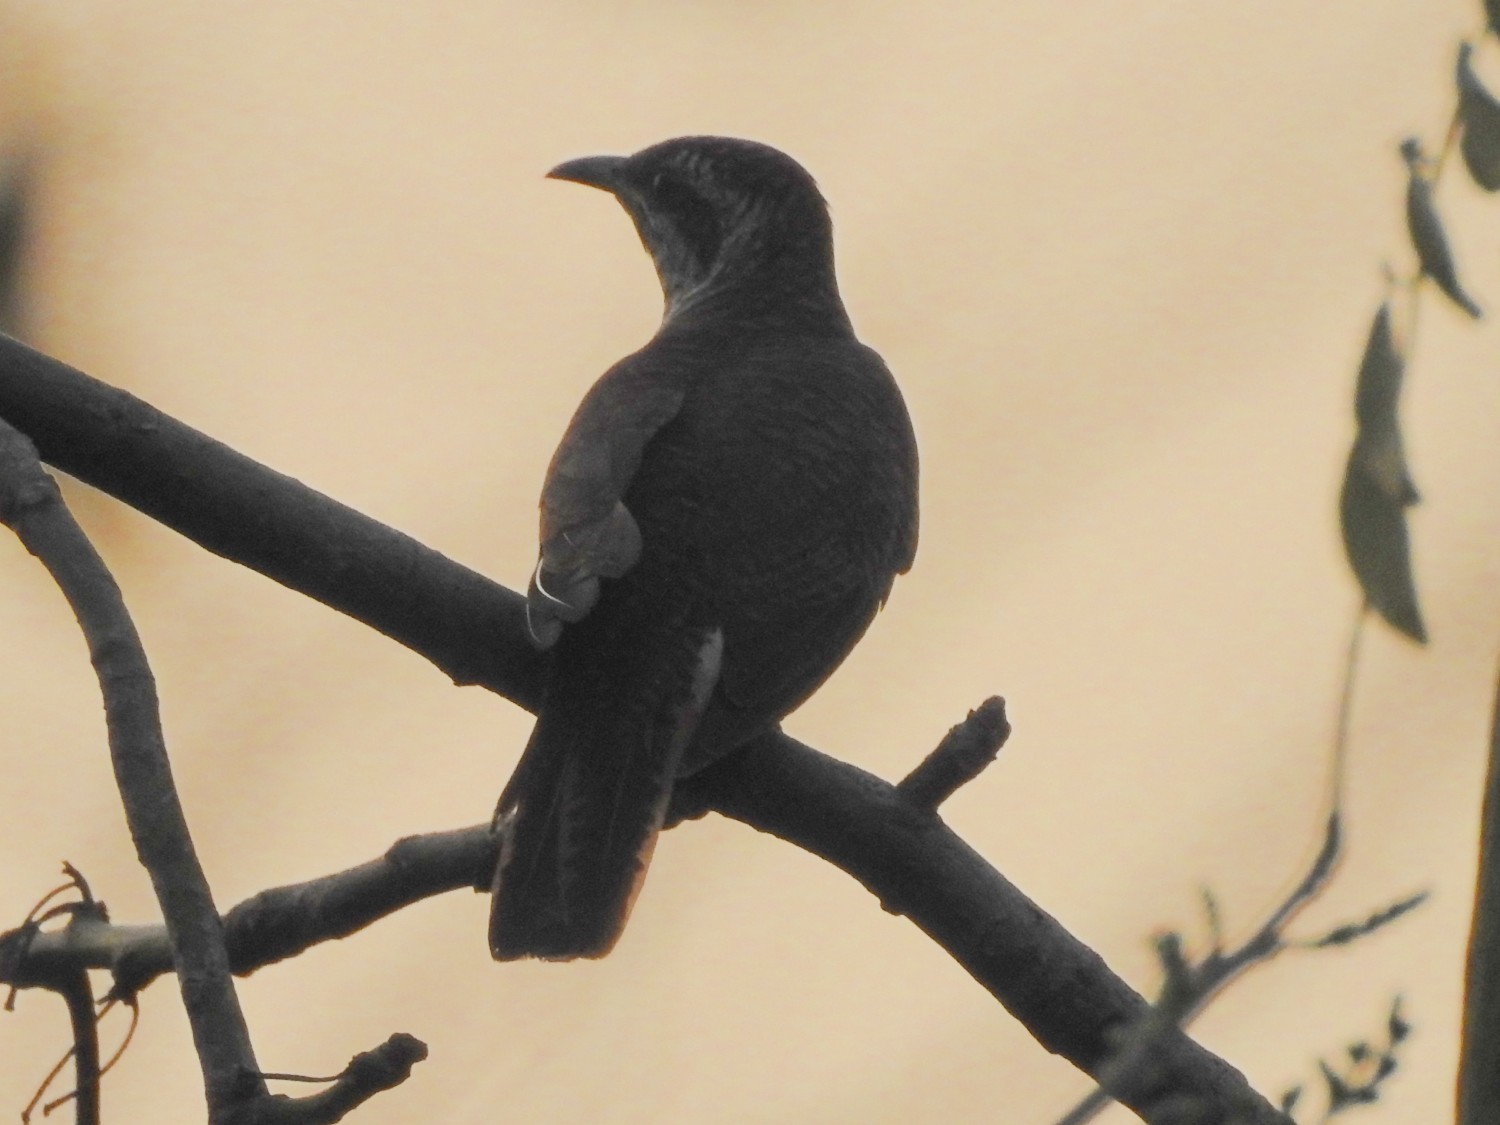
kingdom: Animalia
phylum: Chordata
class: Aves
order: Cuculiformes
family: Cuculidae
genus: Cacomantis
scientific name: Cacomantis sonneratii
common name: Banded bay cuckoo
